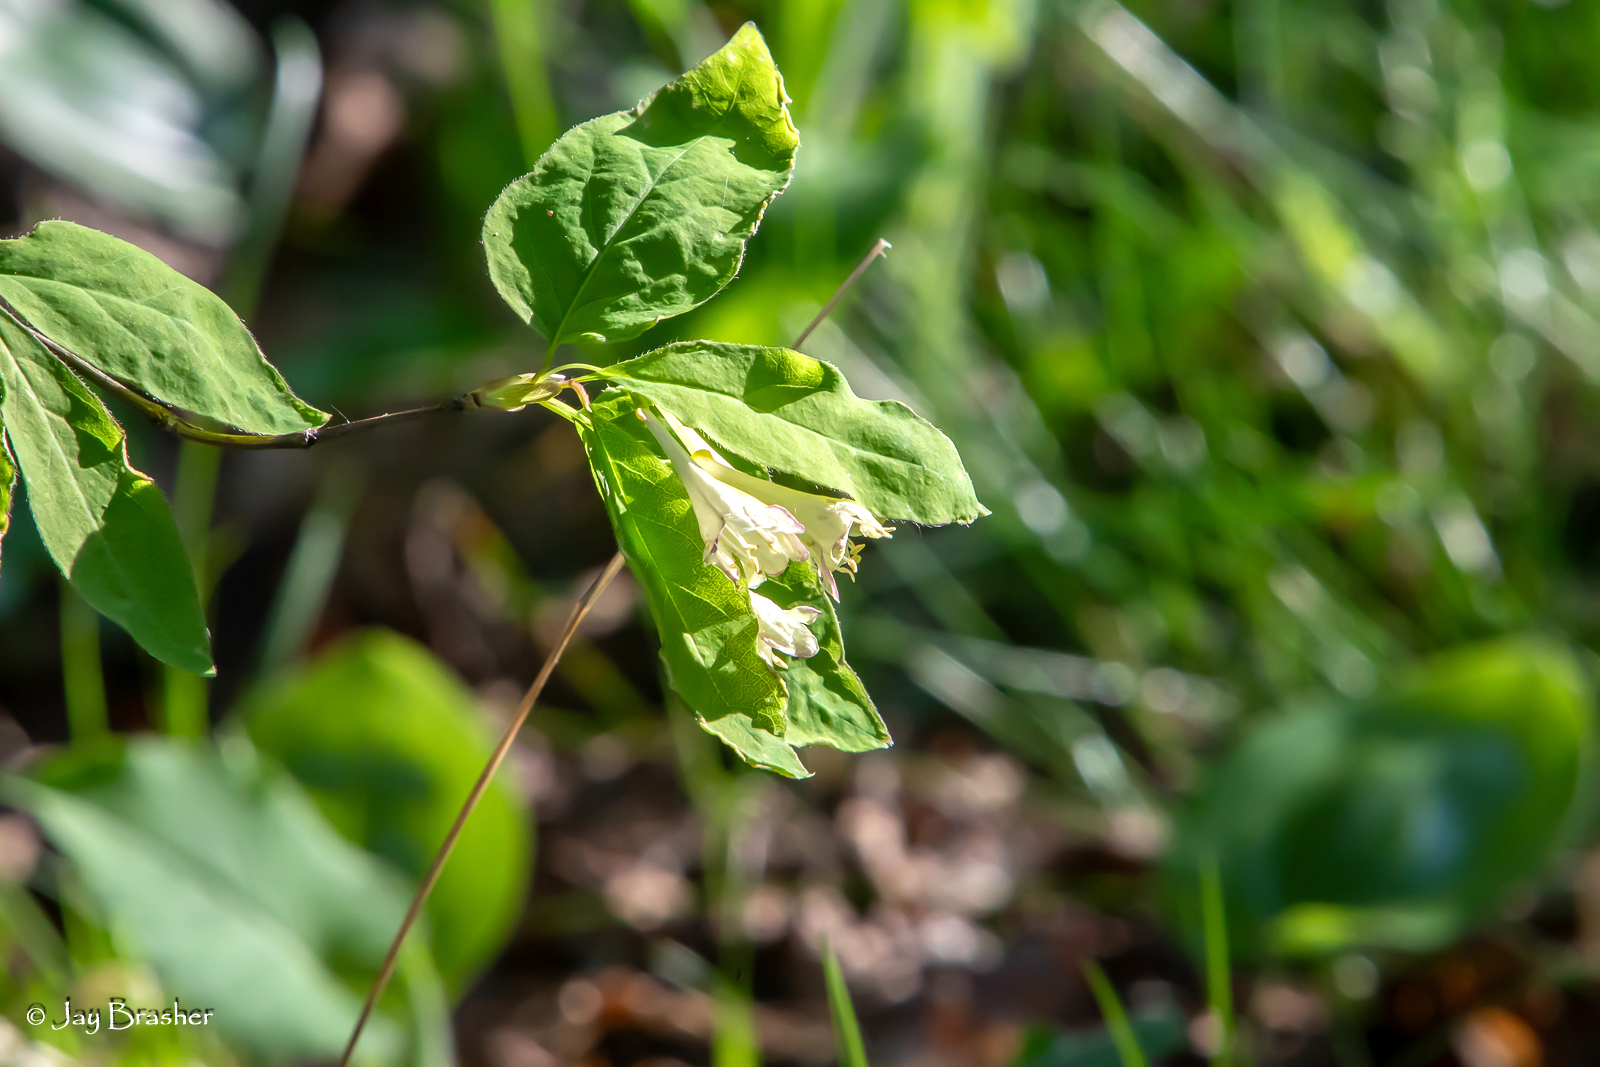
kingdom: Plantae
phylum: Tracheophyta
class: Magnoliopsida
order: Dipsacales
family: Caprifoliaceae
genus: Lonicera
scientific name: Lonicera canadensis
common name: American fly-honeysuckle
